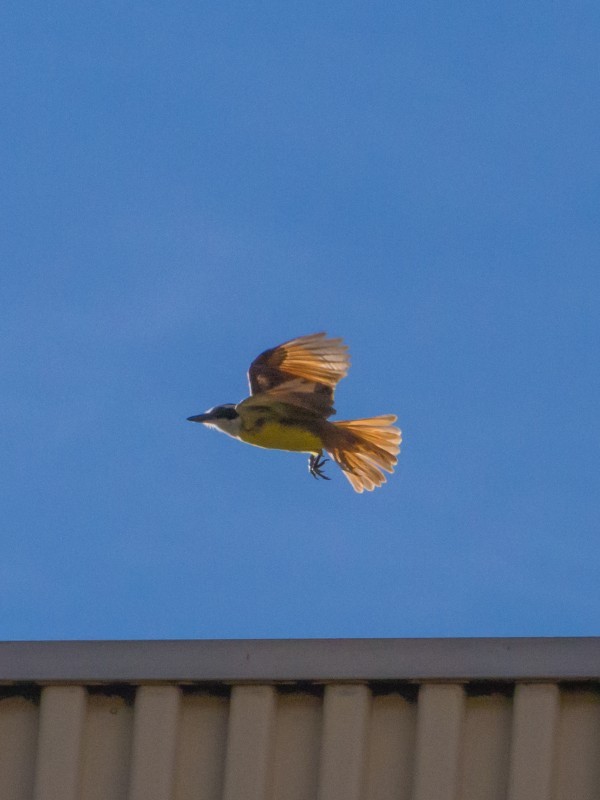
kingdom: Animalia
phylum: Chordata
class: Aves
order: Passeriformes
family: Tyrannidae
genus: Pitangus
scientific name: Pitangus sulphuratus
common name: Great kiskadee
